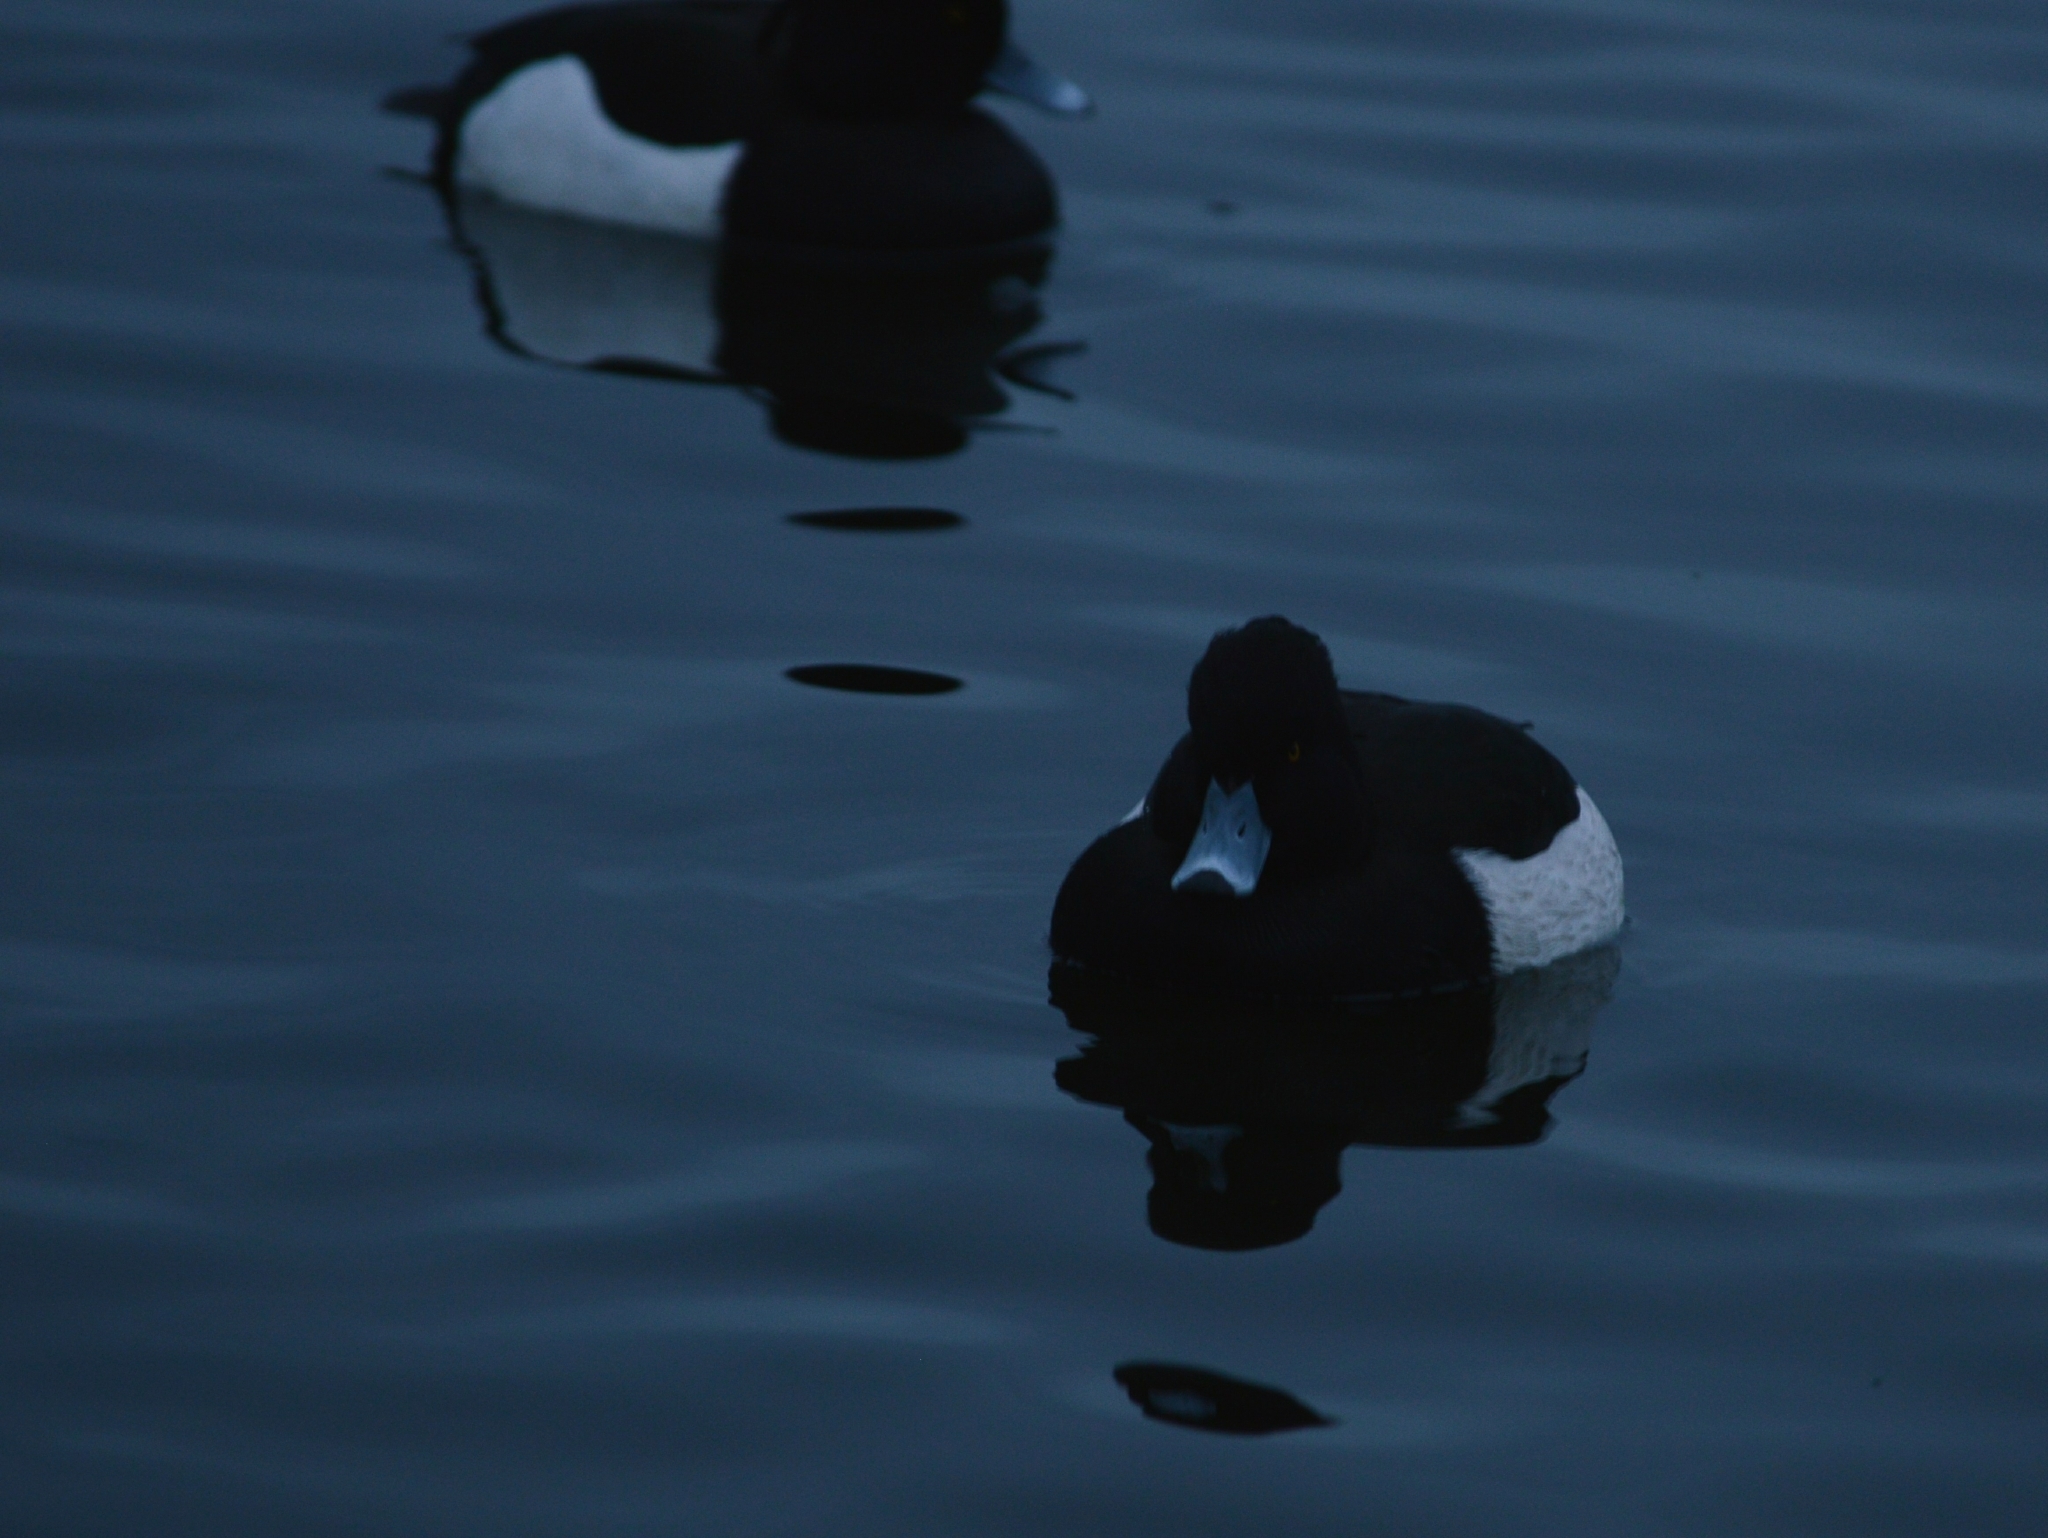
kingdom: Animalia
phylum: Chordata
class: Aves
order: Anseriformes
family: Anatidae
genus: Aythya
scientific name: Aythya fuligula
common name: Tufted duck
